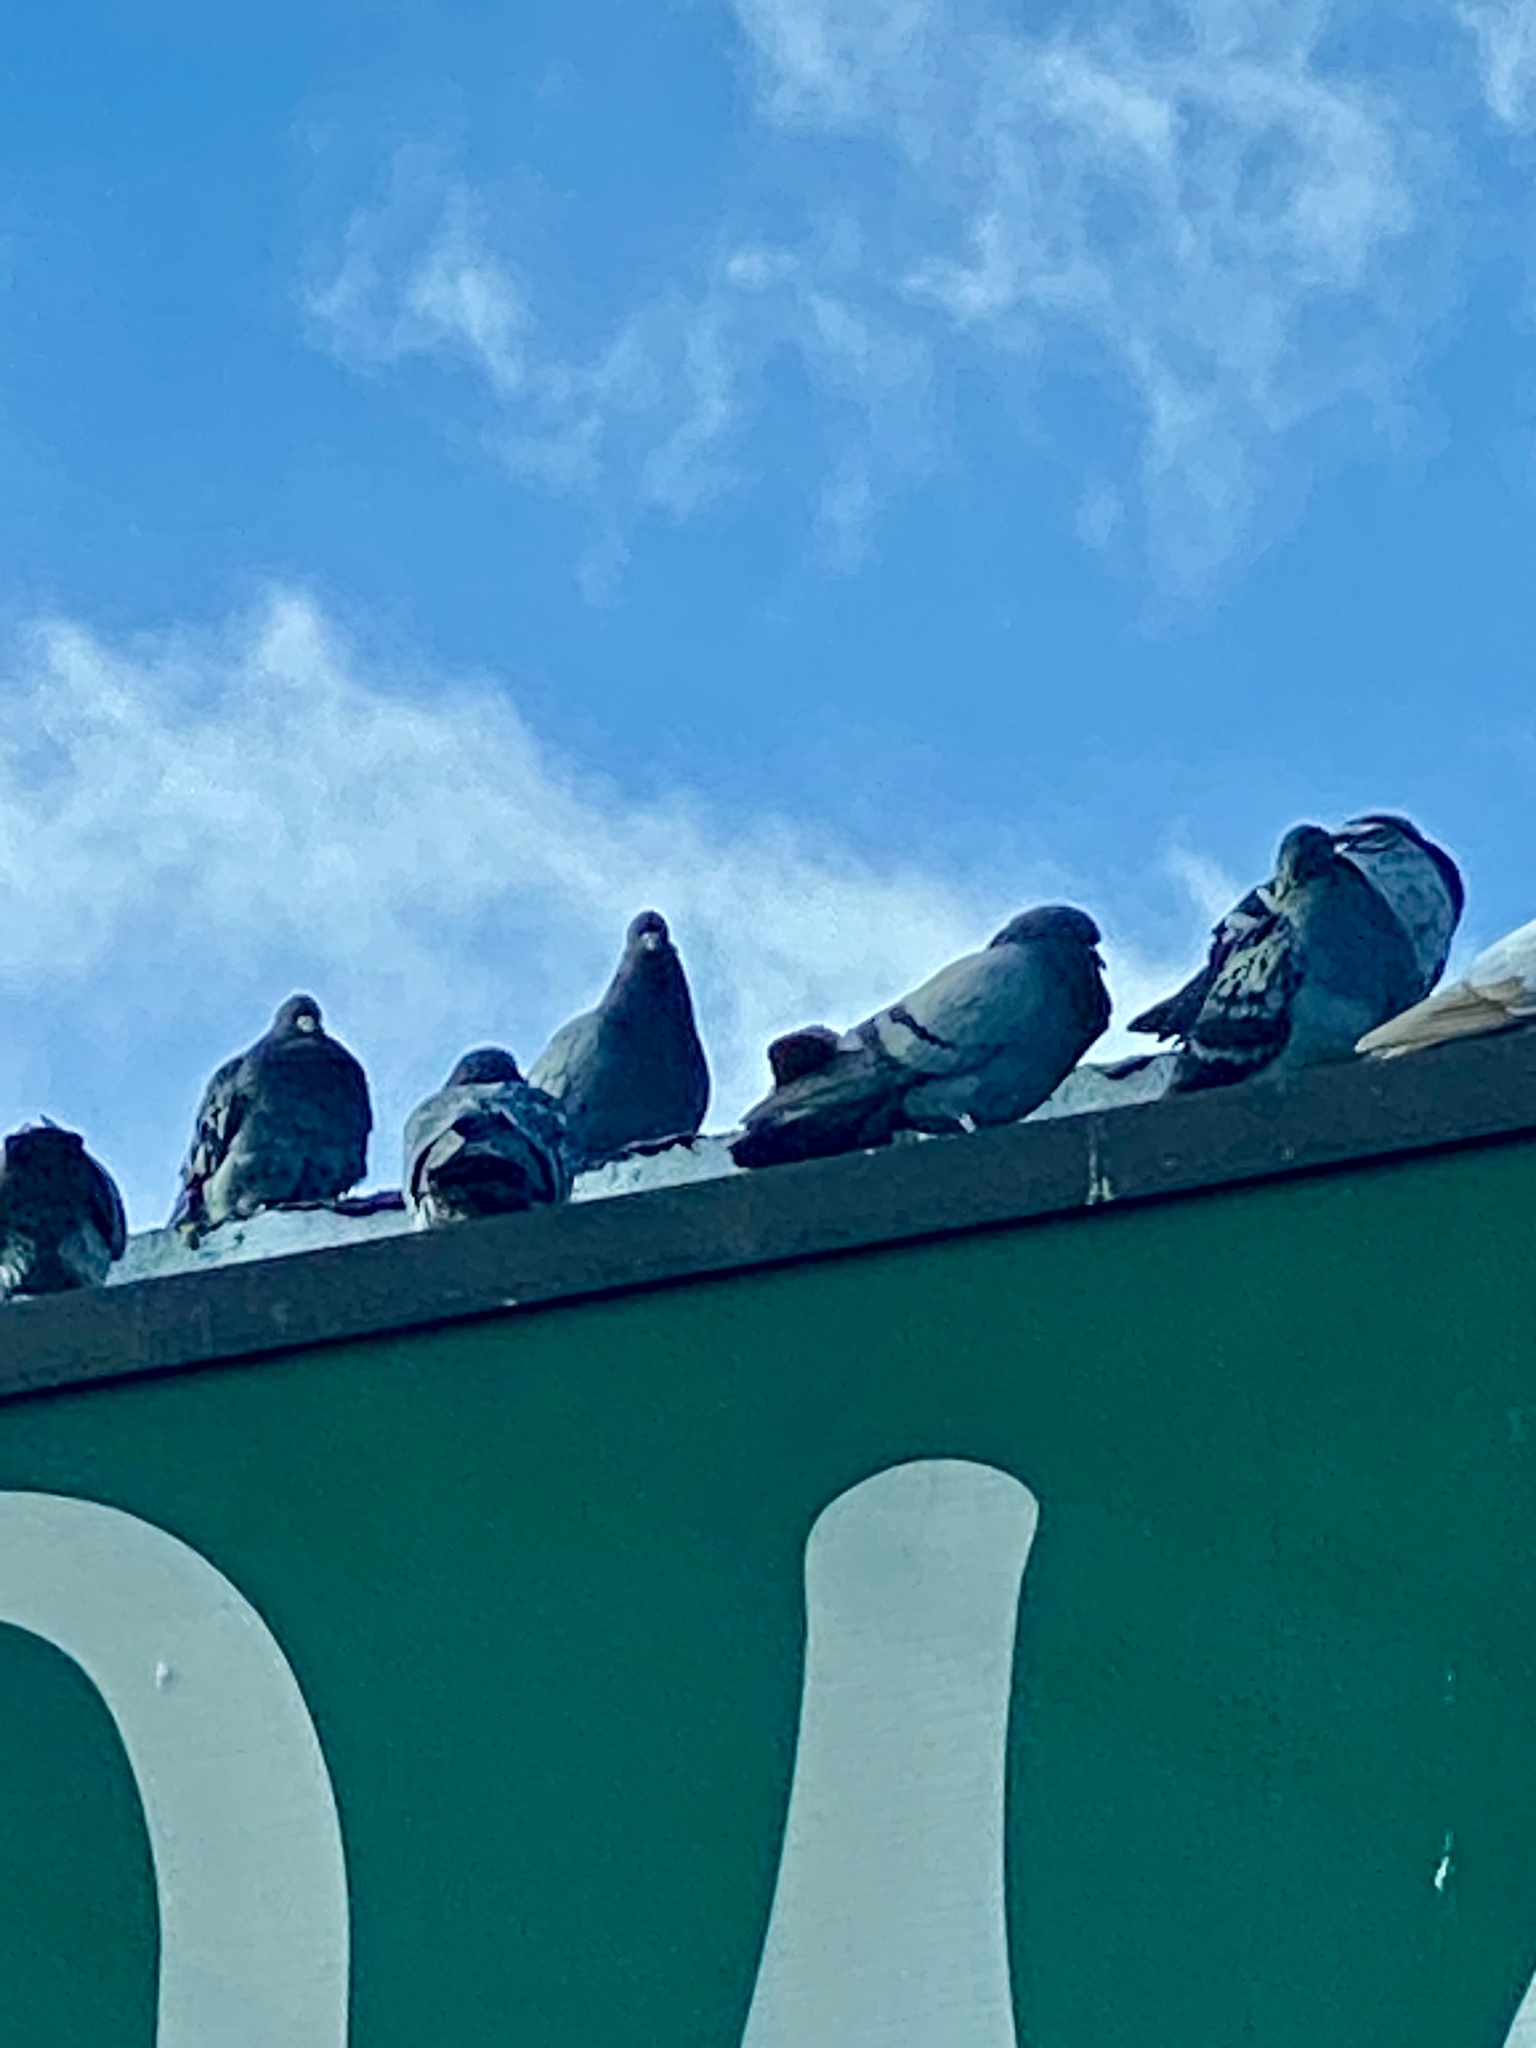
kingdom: Animalia
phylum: Chordata
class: Aves
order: Columbiformes
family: Columbidae
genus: Columba
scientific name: Columba livia
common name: Rock pigeon
